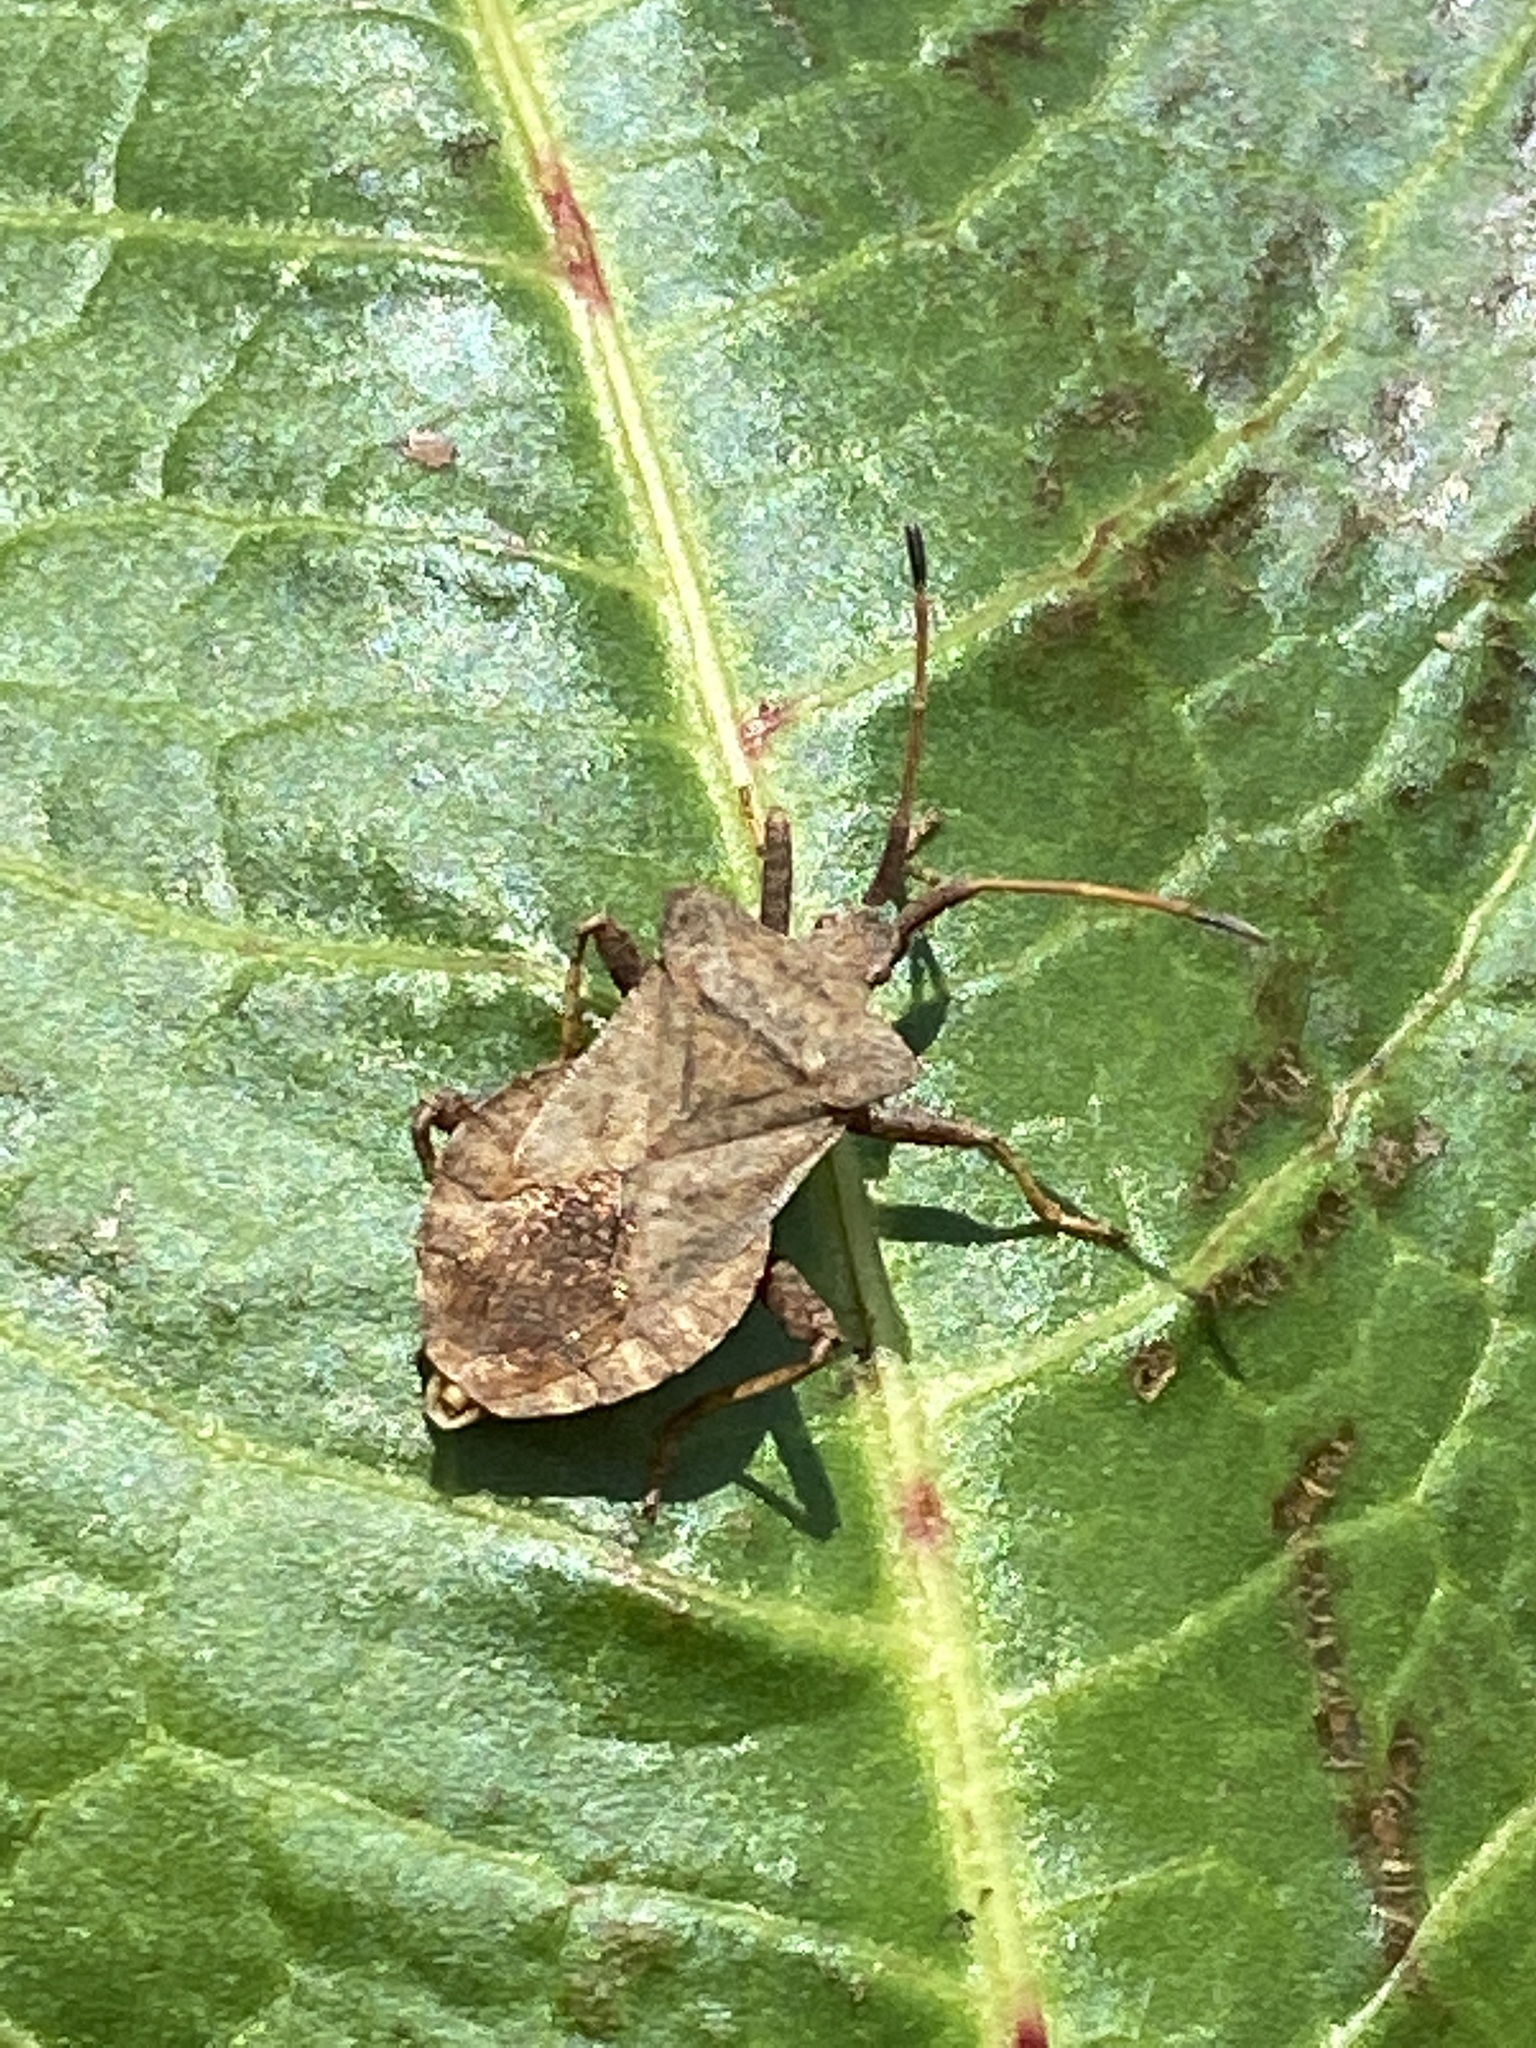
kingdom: Animalia
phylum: Arthropoda
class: Insecta
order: Hemiptera
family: Coreidae
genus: Coreus
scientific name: Coreus marginatus
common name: Dock bug
